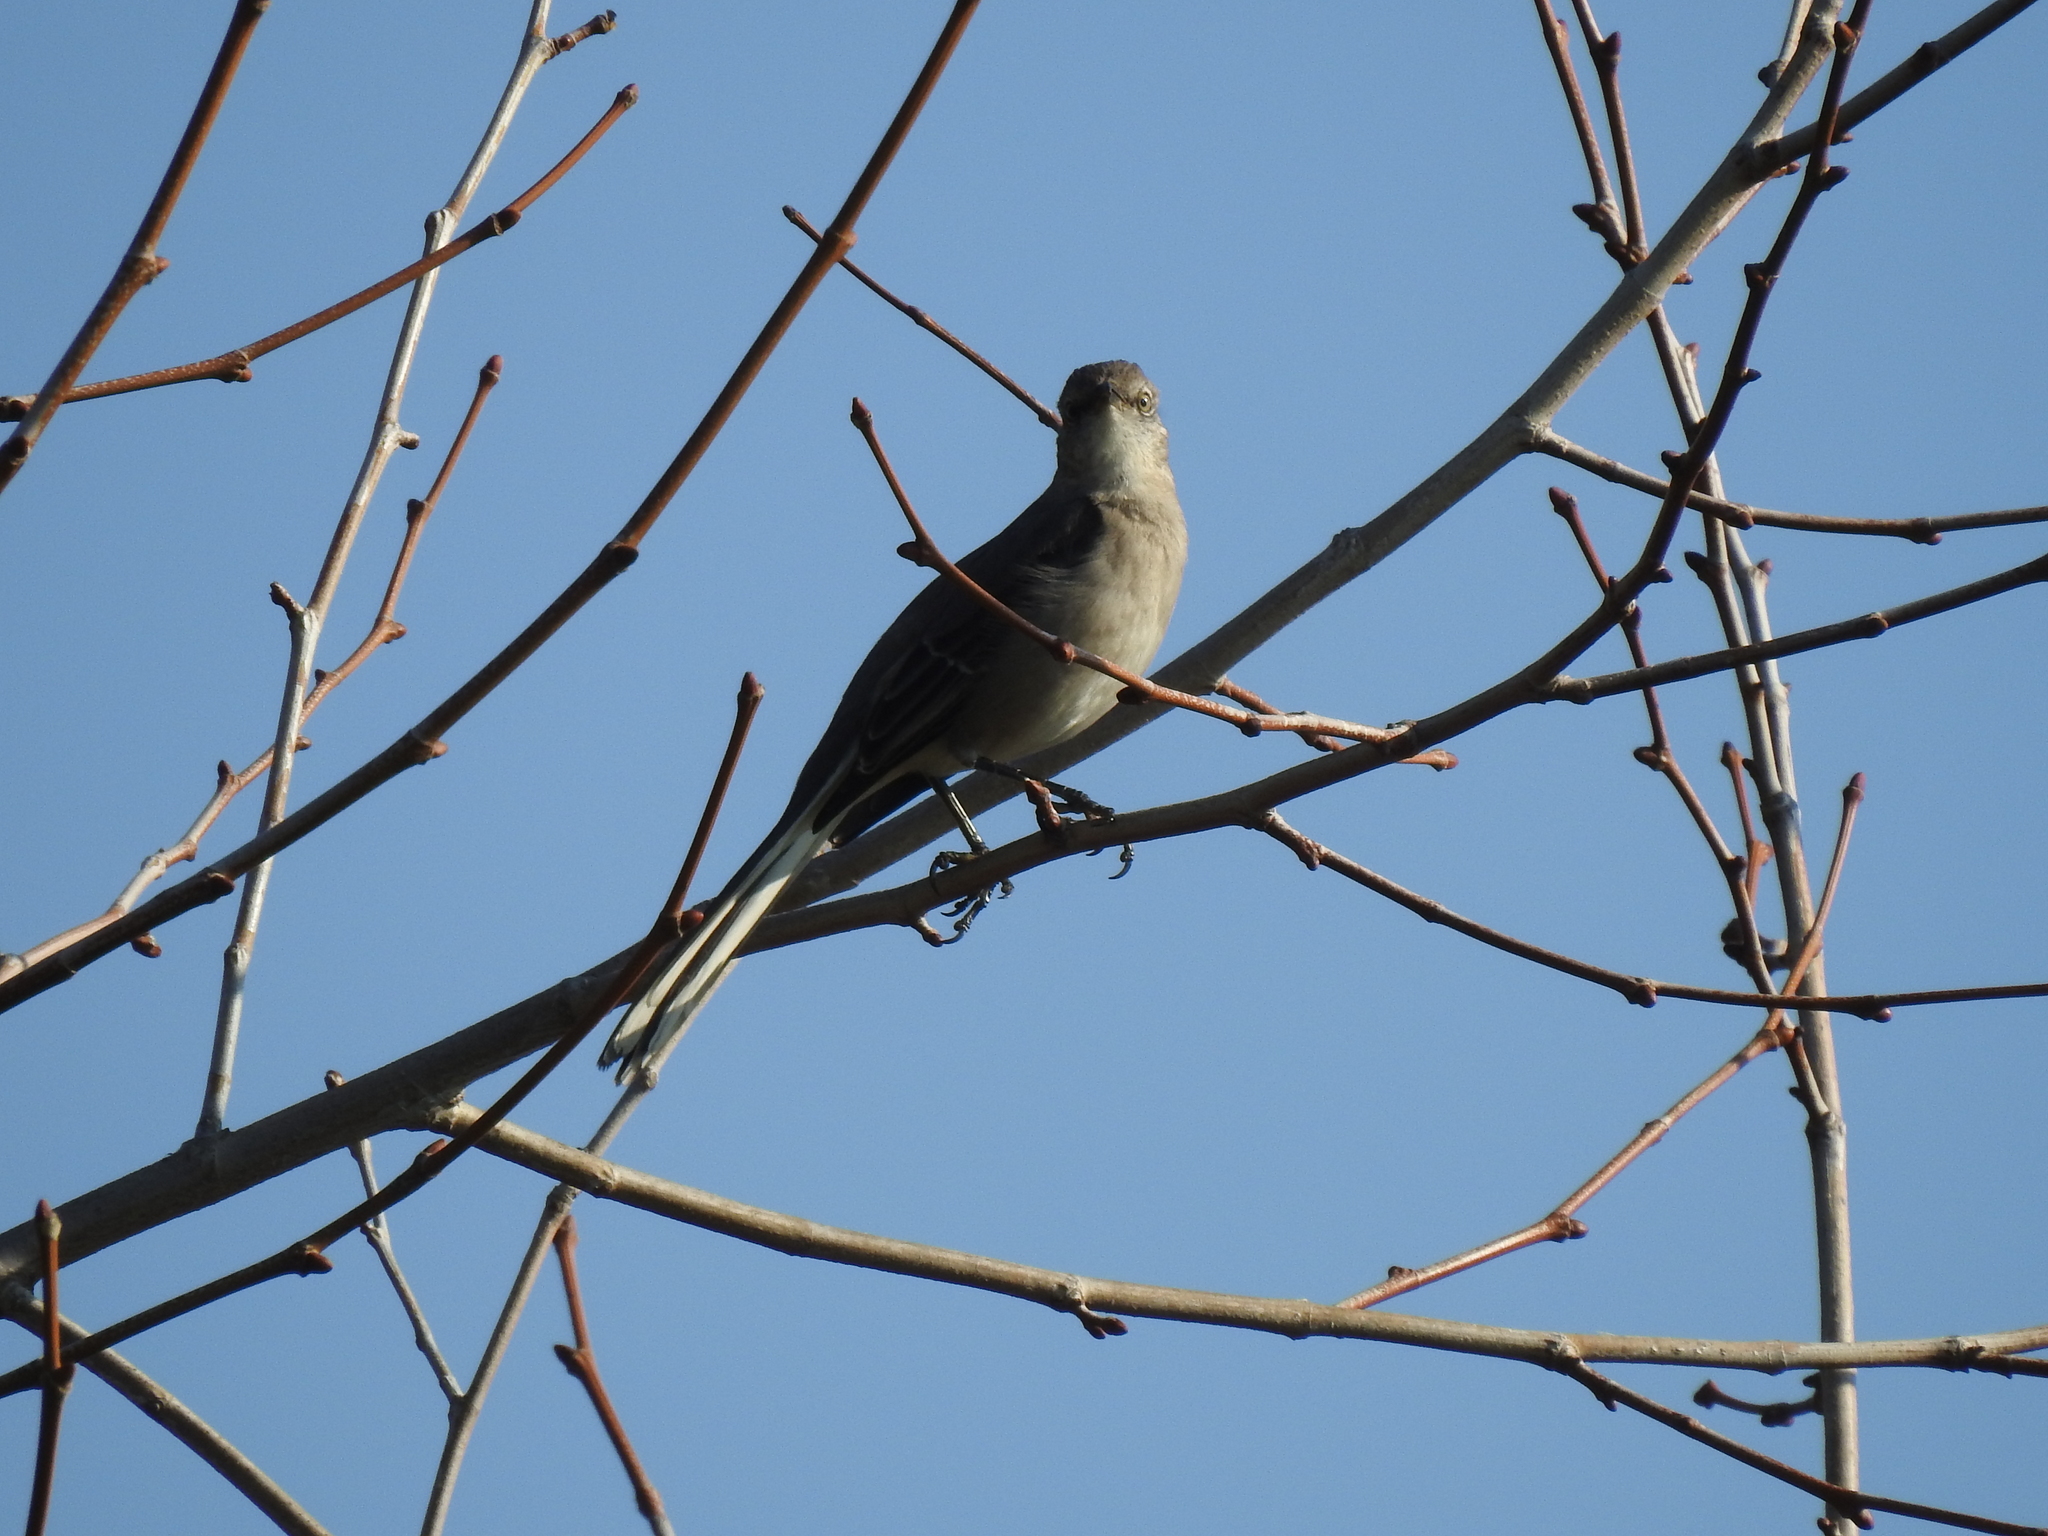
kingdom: Animalia
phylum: Chordata
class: Aves
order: Passeriformes
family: Mimidae
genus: Mimus
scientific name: Mimus polyglottos
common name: Northern mockingbird
